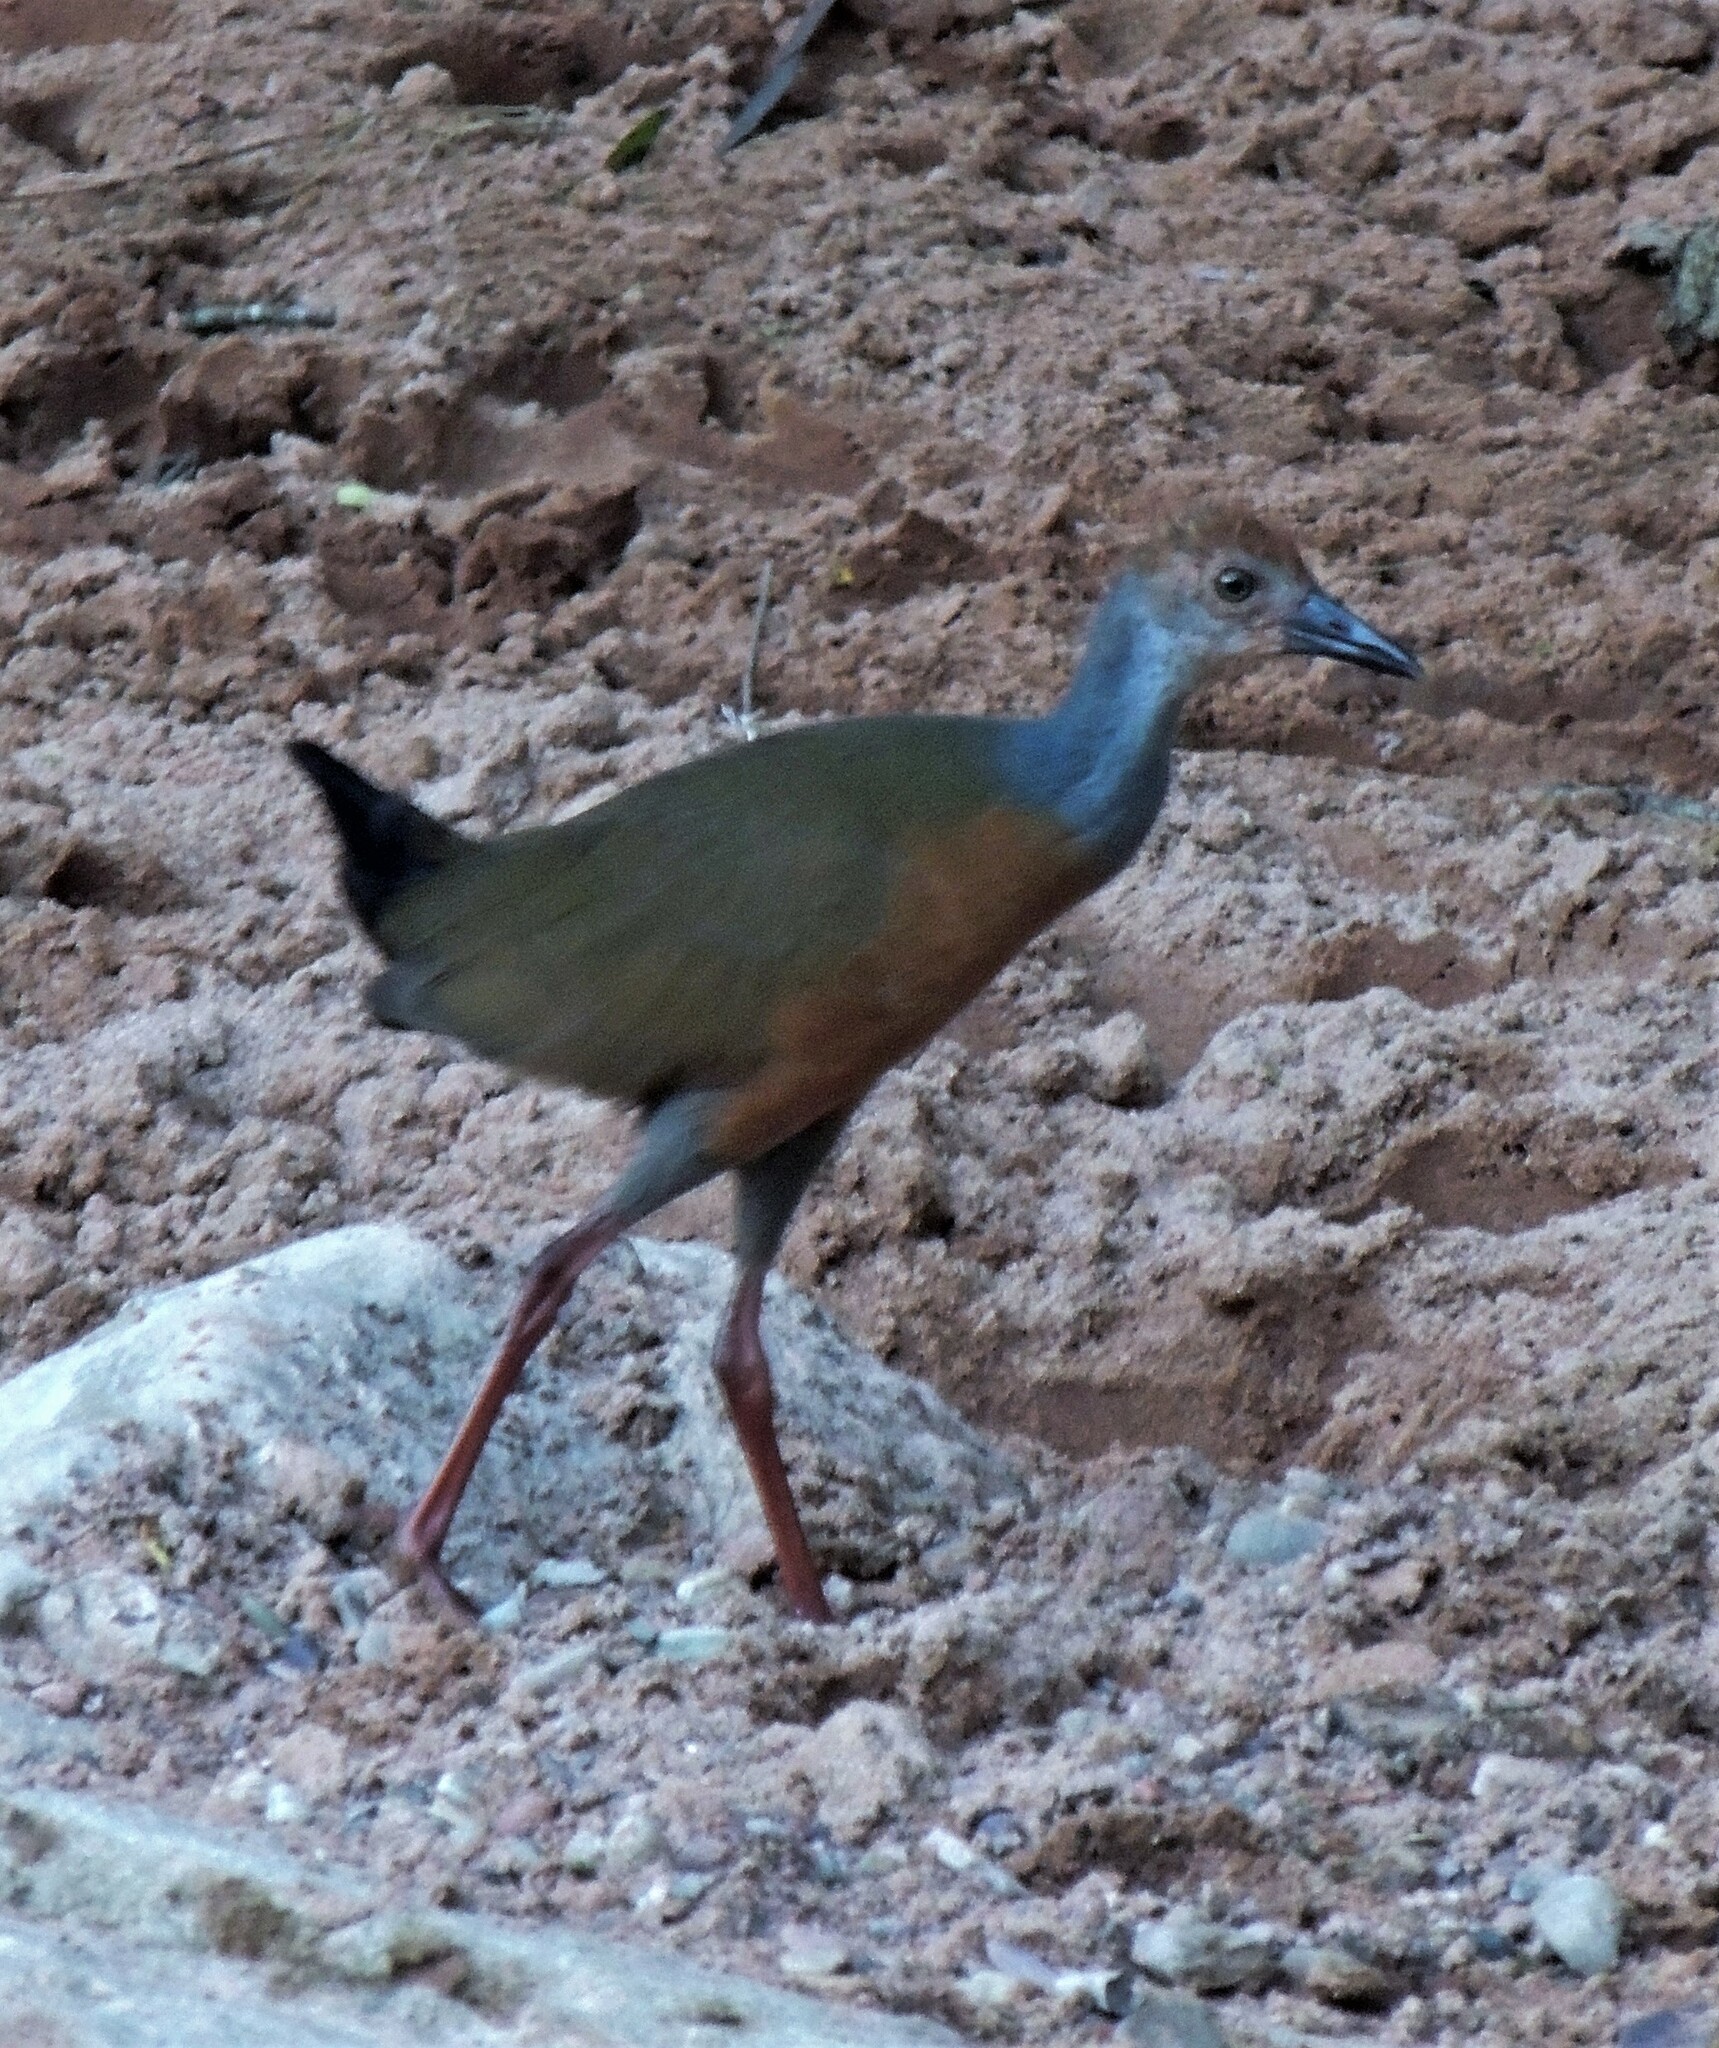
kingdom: Animalia
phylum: Chordata
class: Aves
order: Gruiformes
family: Rallidae
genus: Aramides
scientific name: Aramides cajanea
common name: Gray-necked wood-rail
